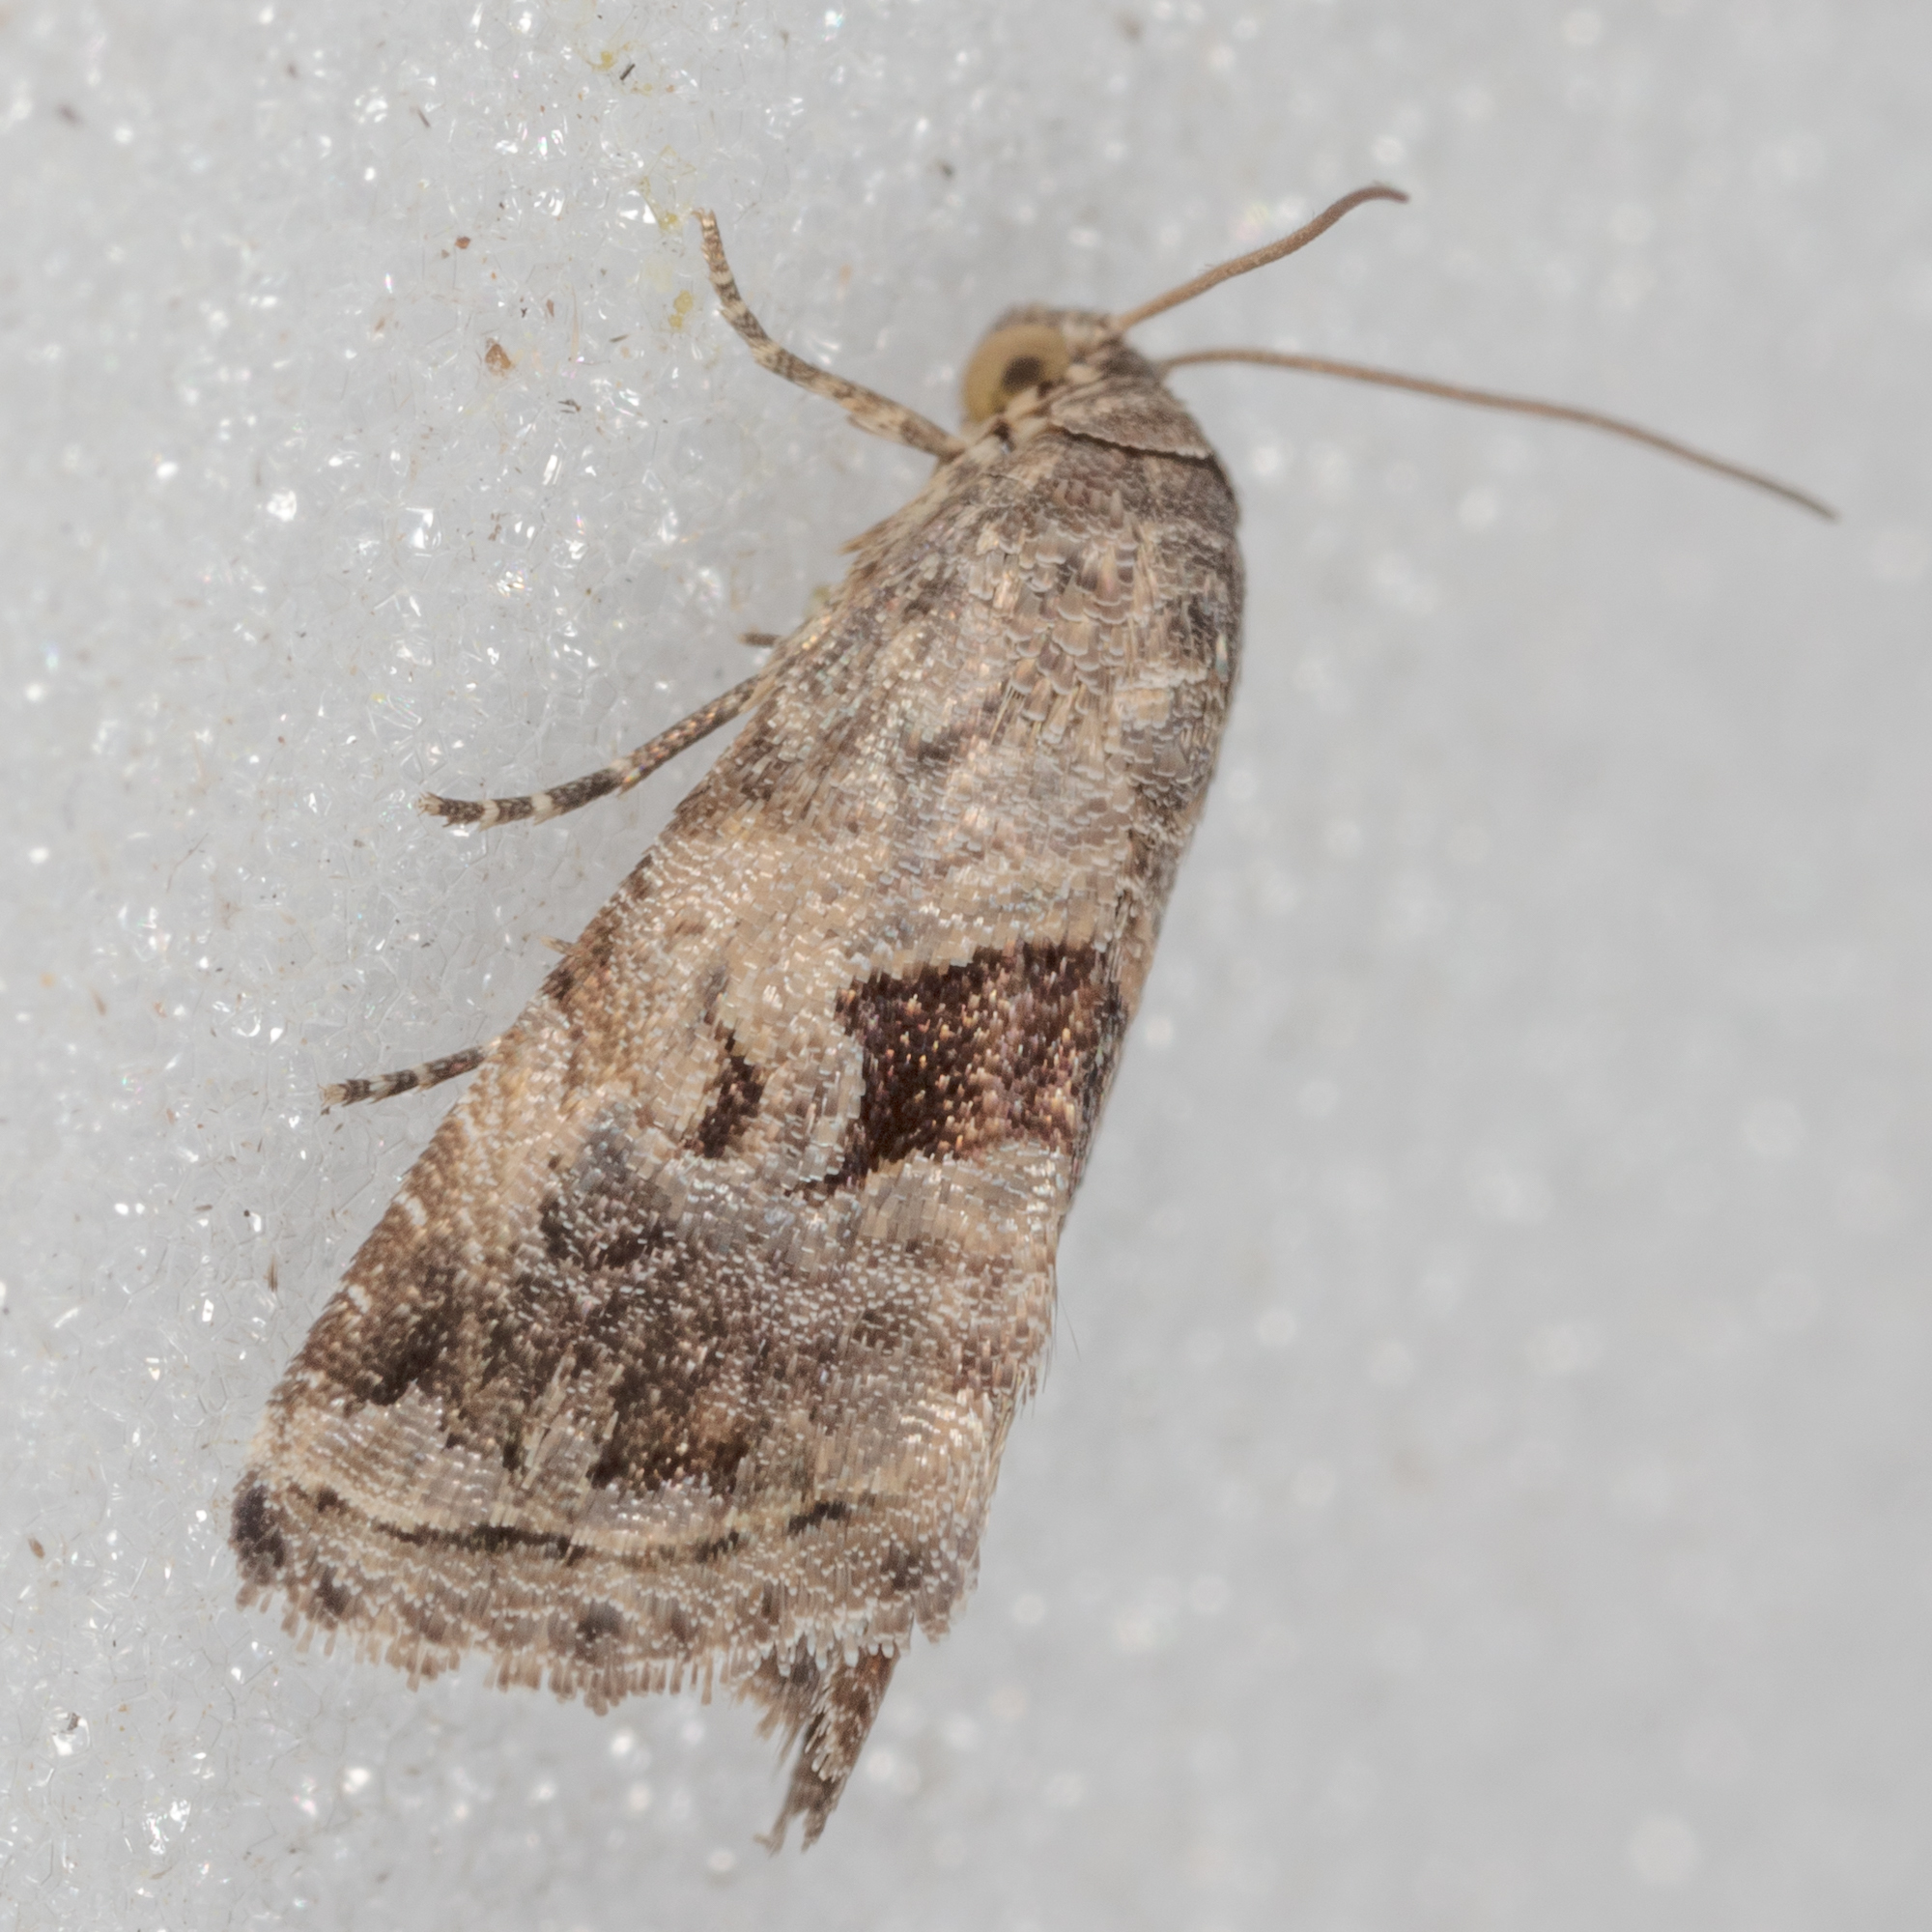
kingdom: Animalia
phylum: Arthropoda
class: Insecta
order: Lepidoptera
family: Noctuidae
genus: Tripudia
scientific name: Tripudia quadrifera
